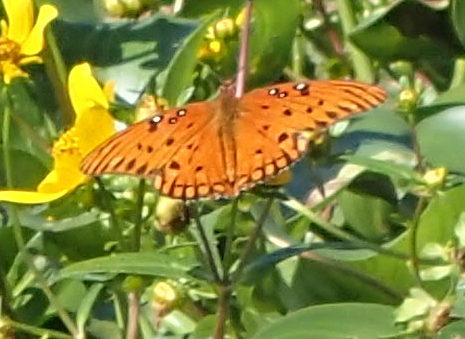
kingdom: Animalia
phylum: Arthropoda
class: Insecta
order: Lepidoptera
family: Nymphalidae
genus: Dione
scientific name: Dione vanillae
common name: Gulf fritillary
